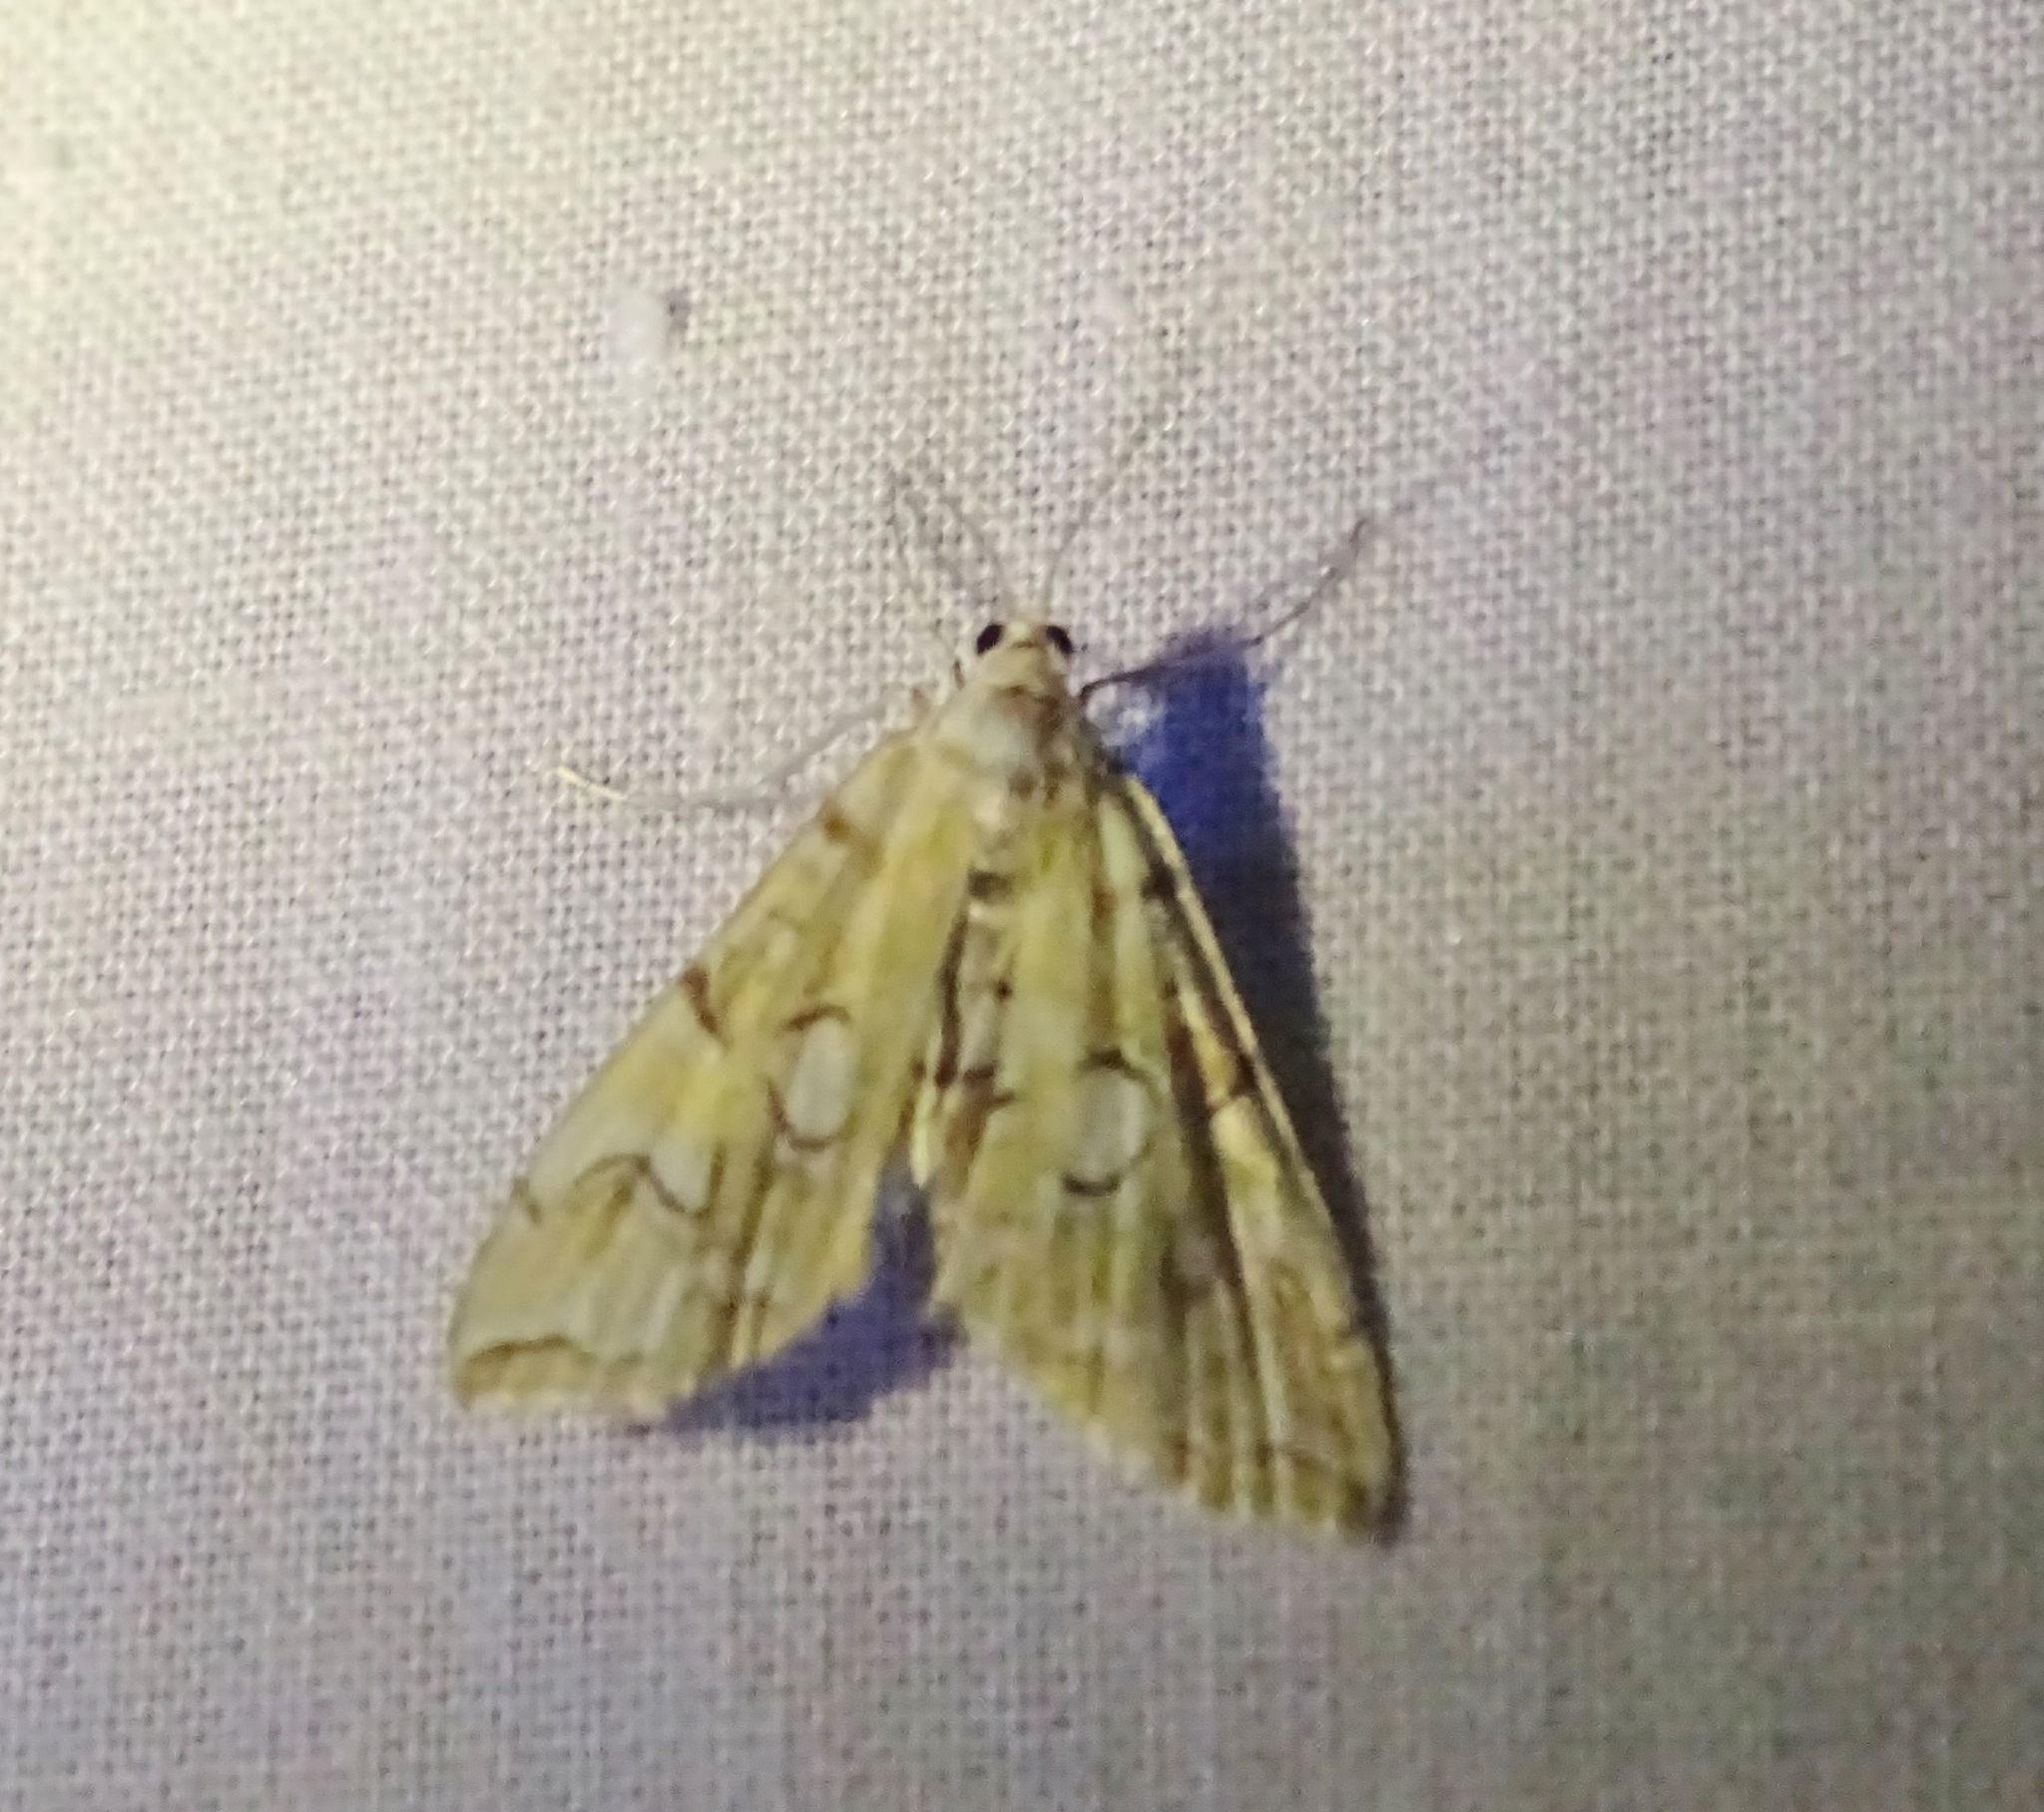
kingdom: Animalia
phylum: Arthropoda
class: Insecta
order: Lepidoptera
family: Crambidae
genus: Elophila
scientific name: Elophila icciusalis
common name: Pondside pyralid moth
